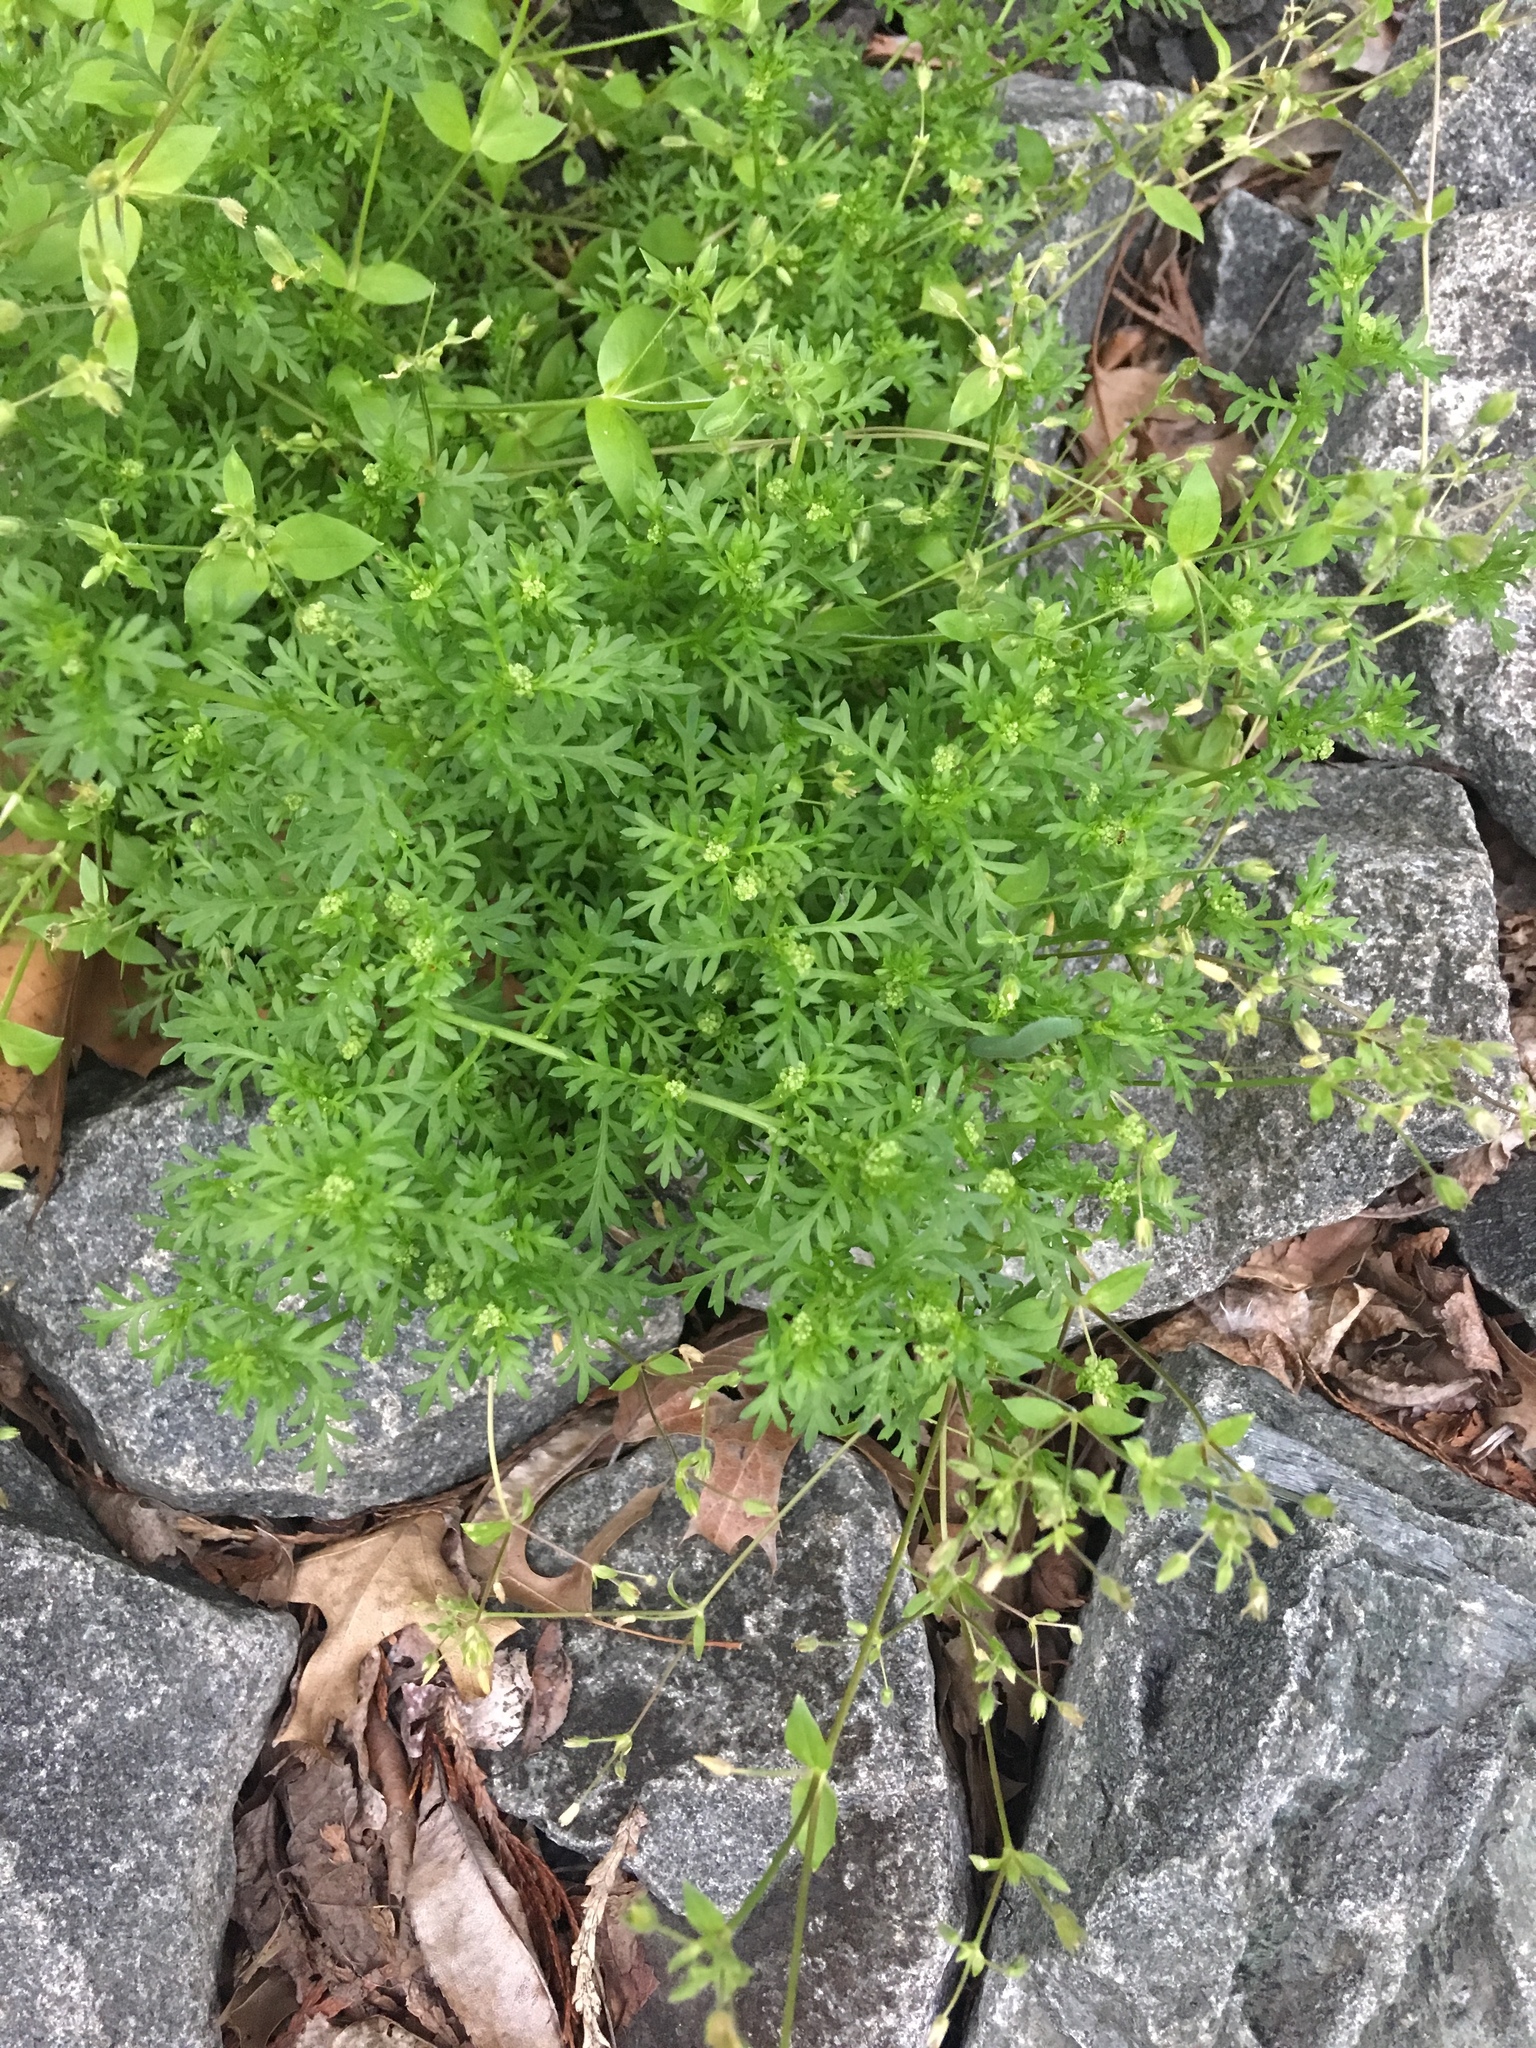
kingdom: Plantae
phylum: Tracheophyta
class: Magnoliopsida
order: Brassicales
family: Brassicaceae
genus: Lepidium
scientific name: Lepidium didymum
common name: Lesser swinecress
